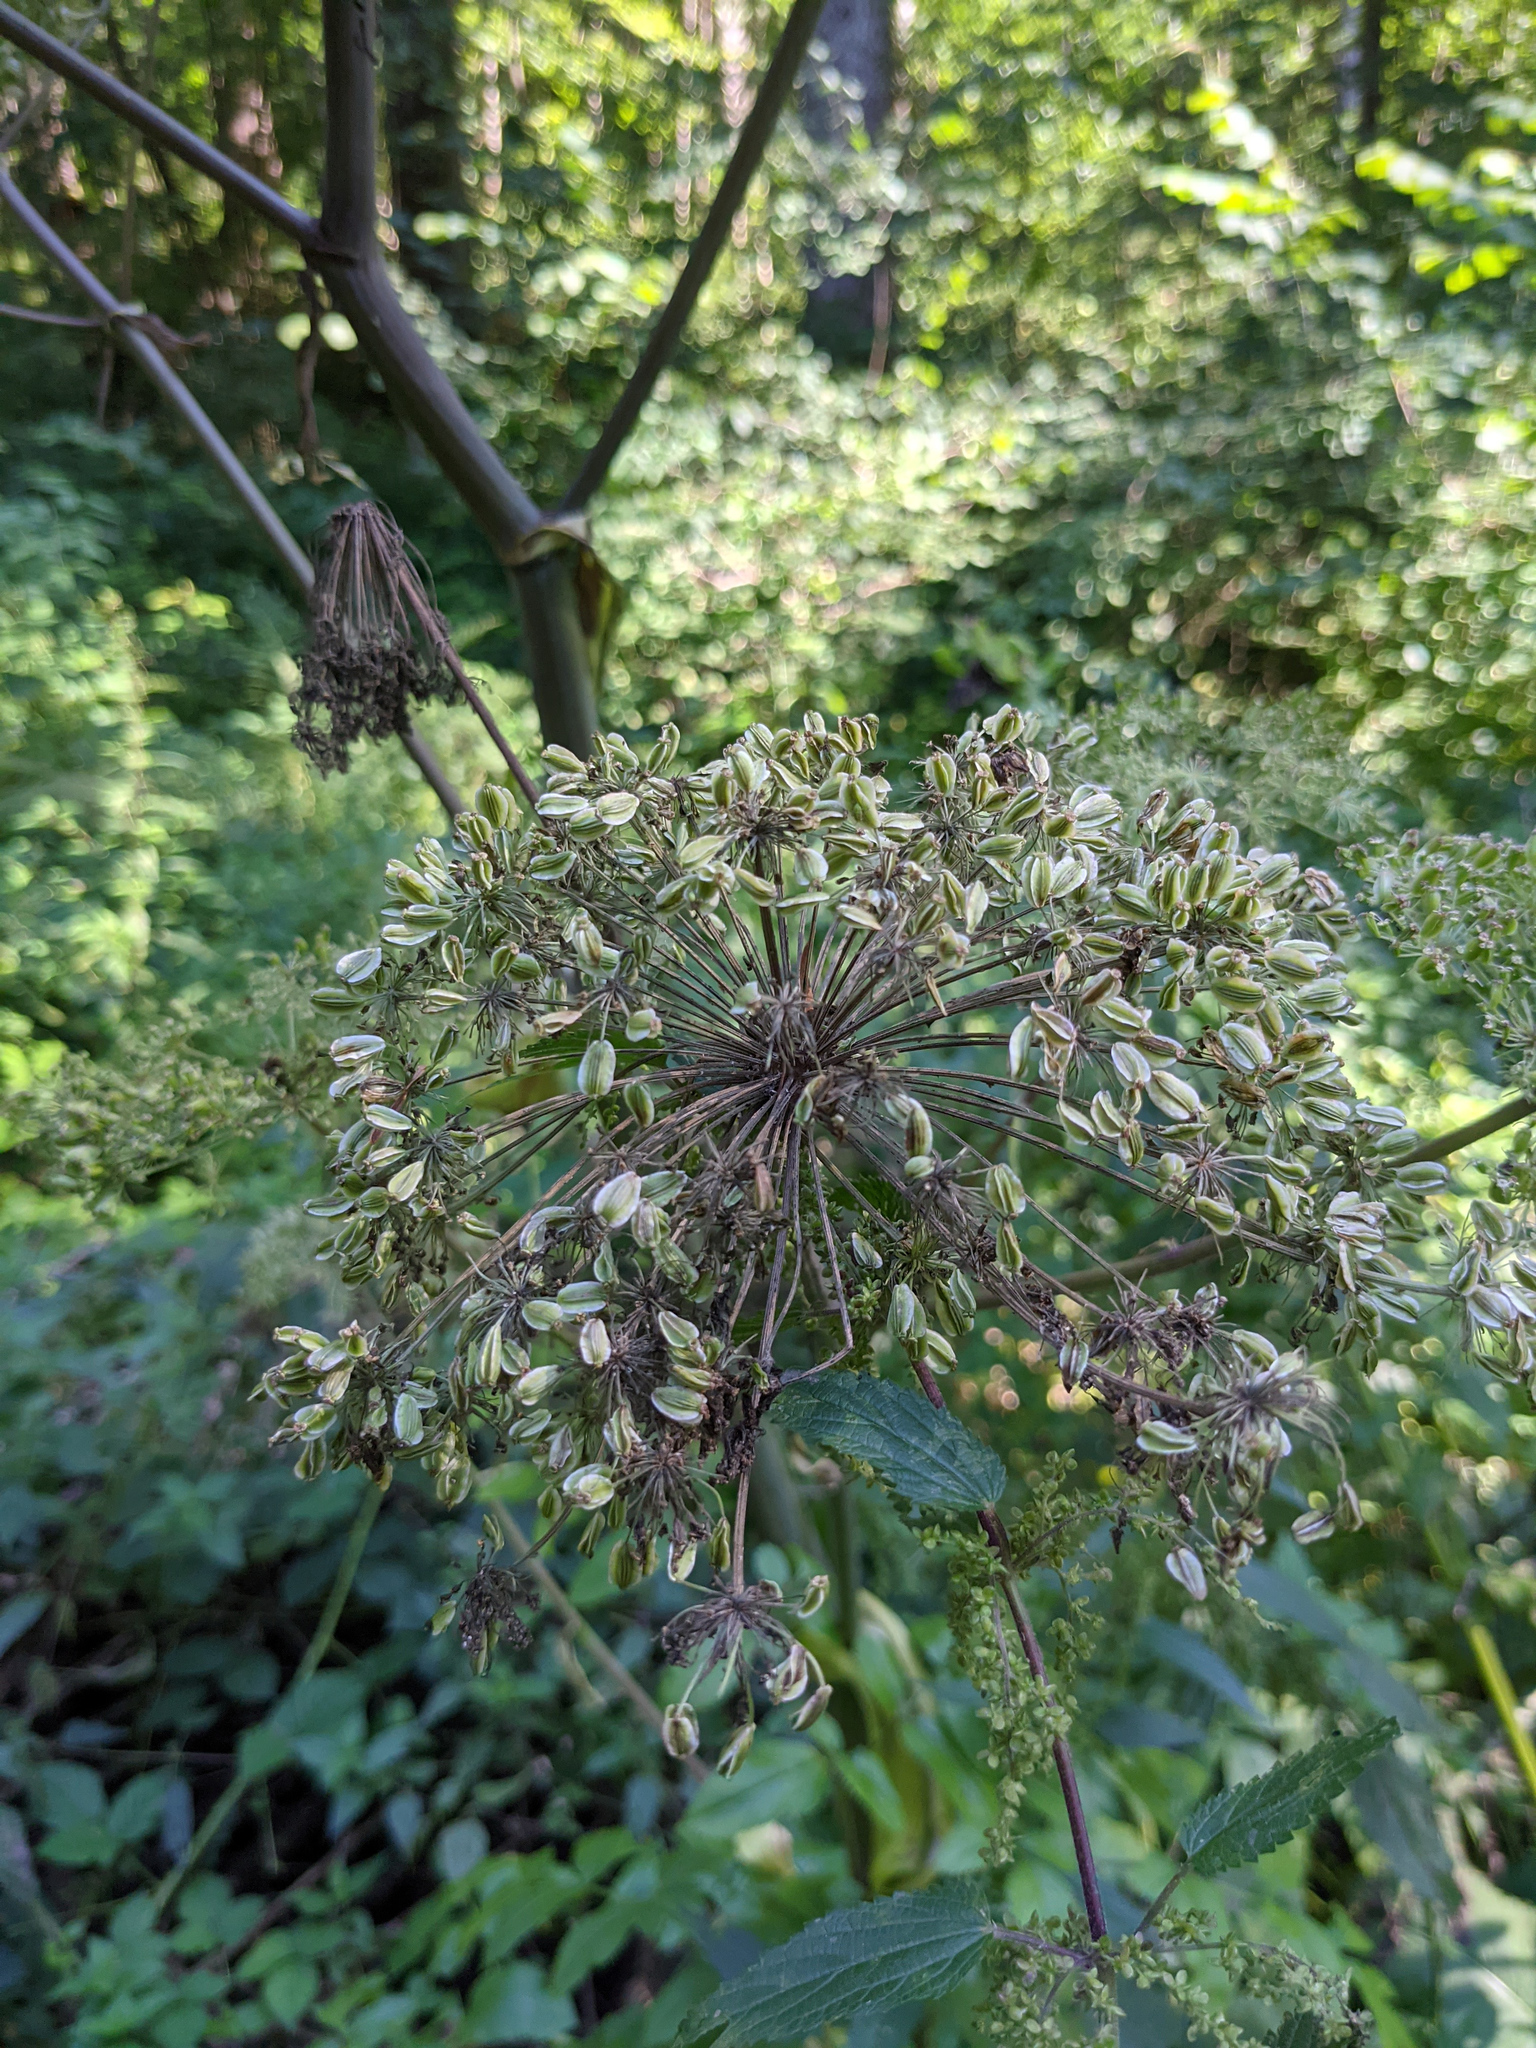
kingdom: Plantae
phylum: Tracheophyta
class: Magnoliopsida
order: Apiales
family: Apiaceae
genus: Angelica
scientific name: Angelica sylvestris
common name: Wild angelica
